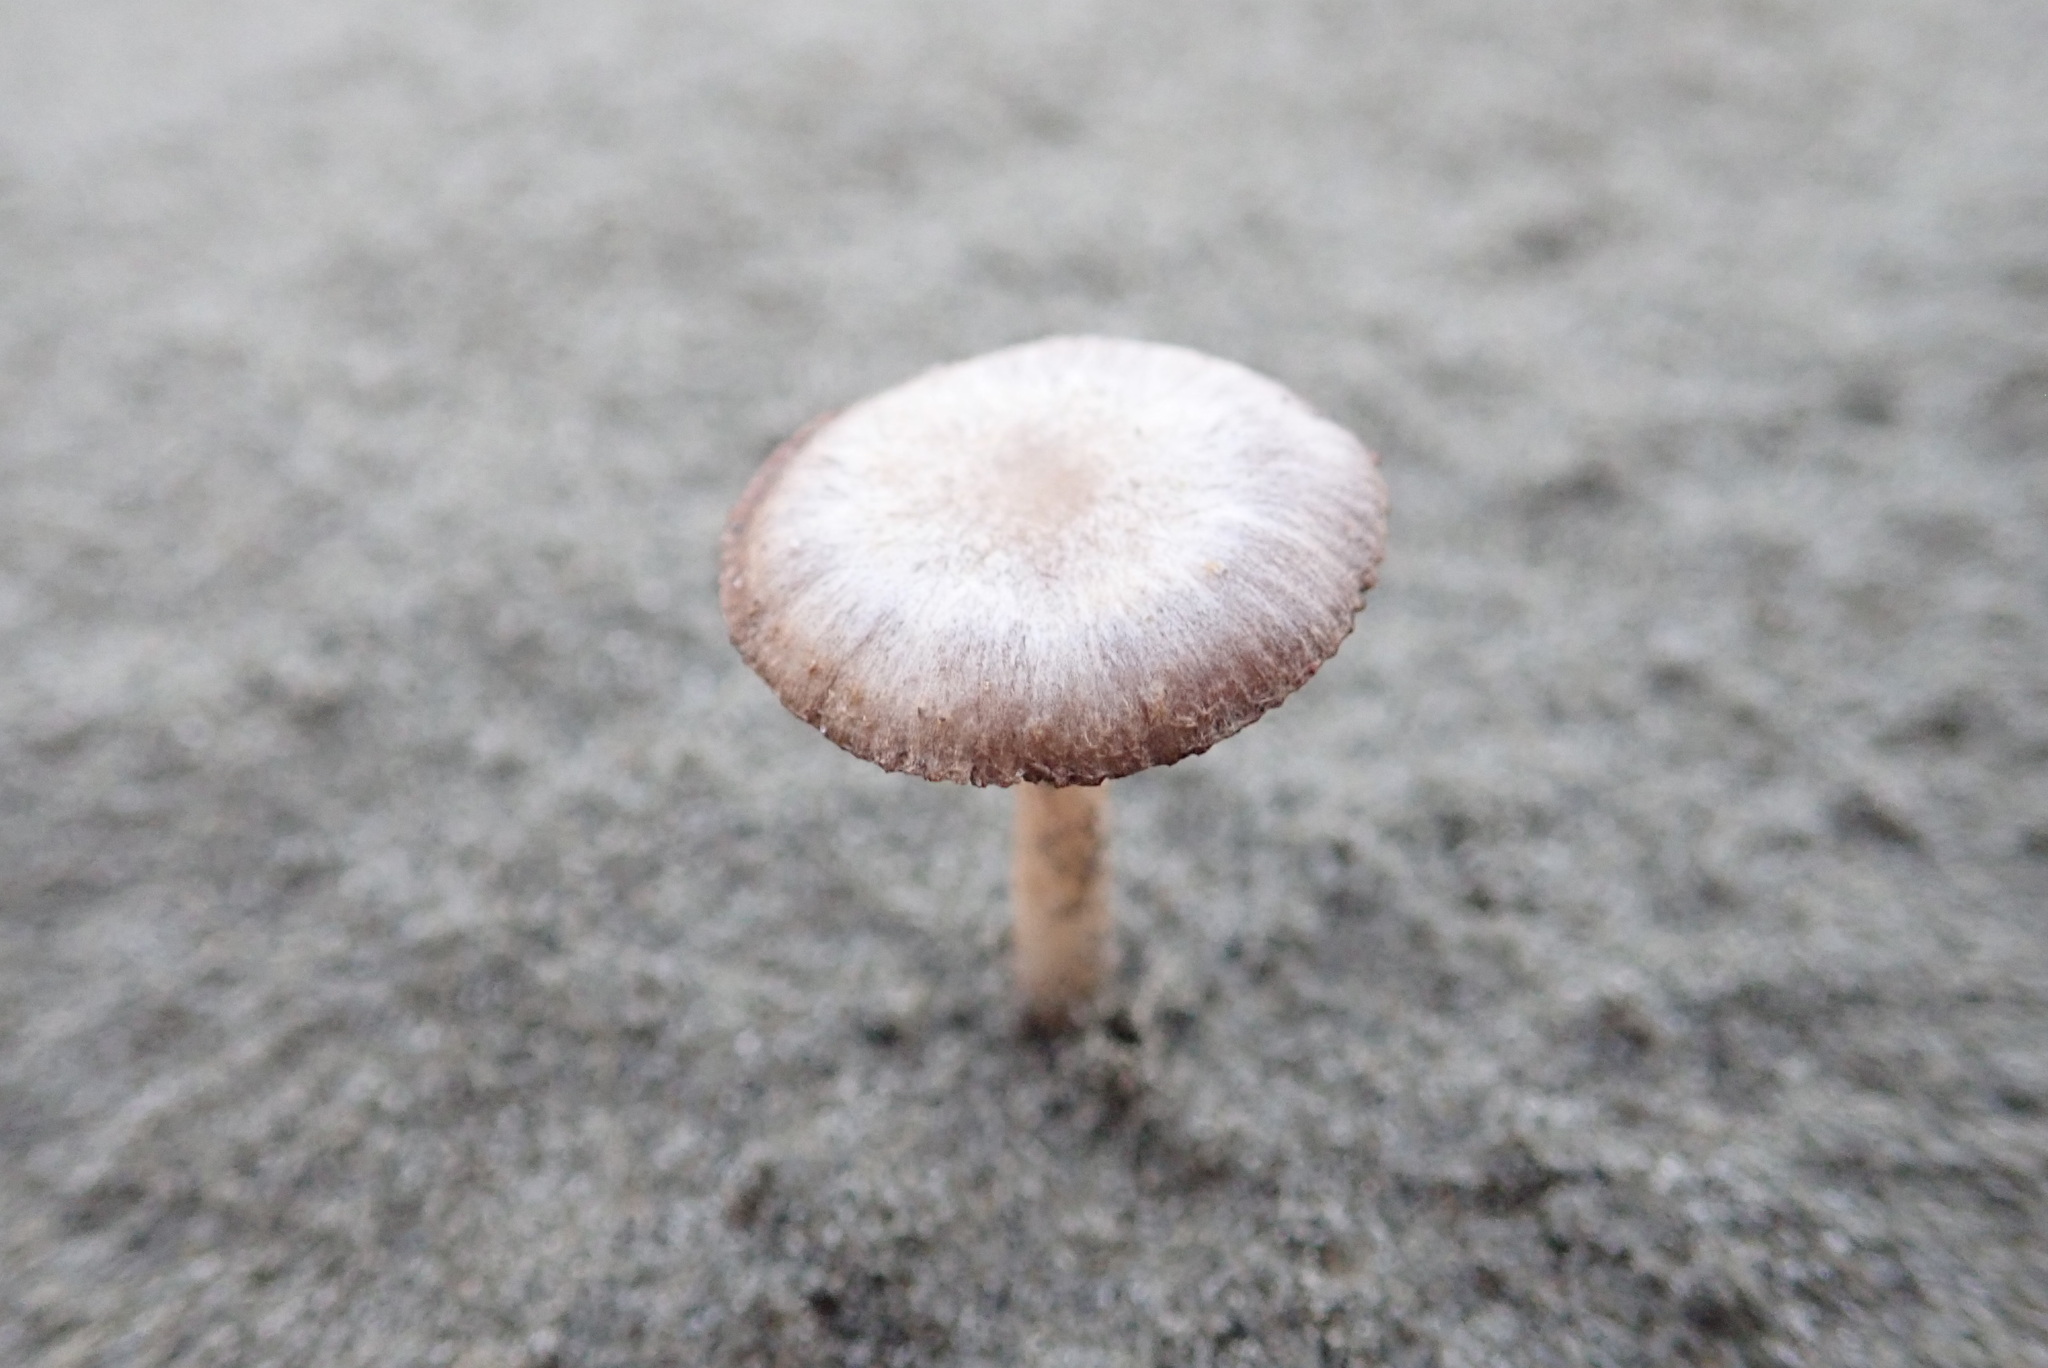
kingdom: Fungi
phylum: Basidiomycota
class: Agaricomycetes
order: Agaricales
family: Psathyrellaceae
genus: Psathyrella
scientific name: Psathyrella ammophila
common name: Dune brittlestem
